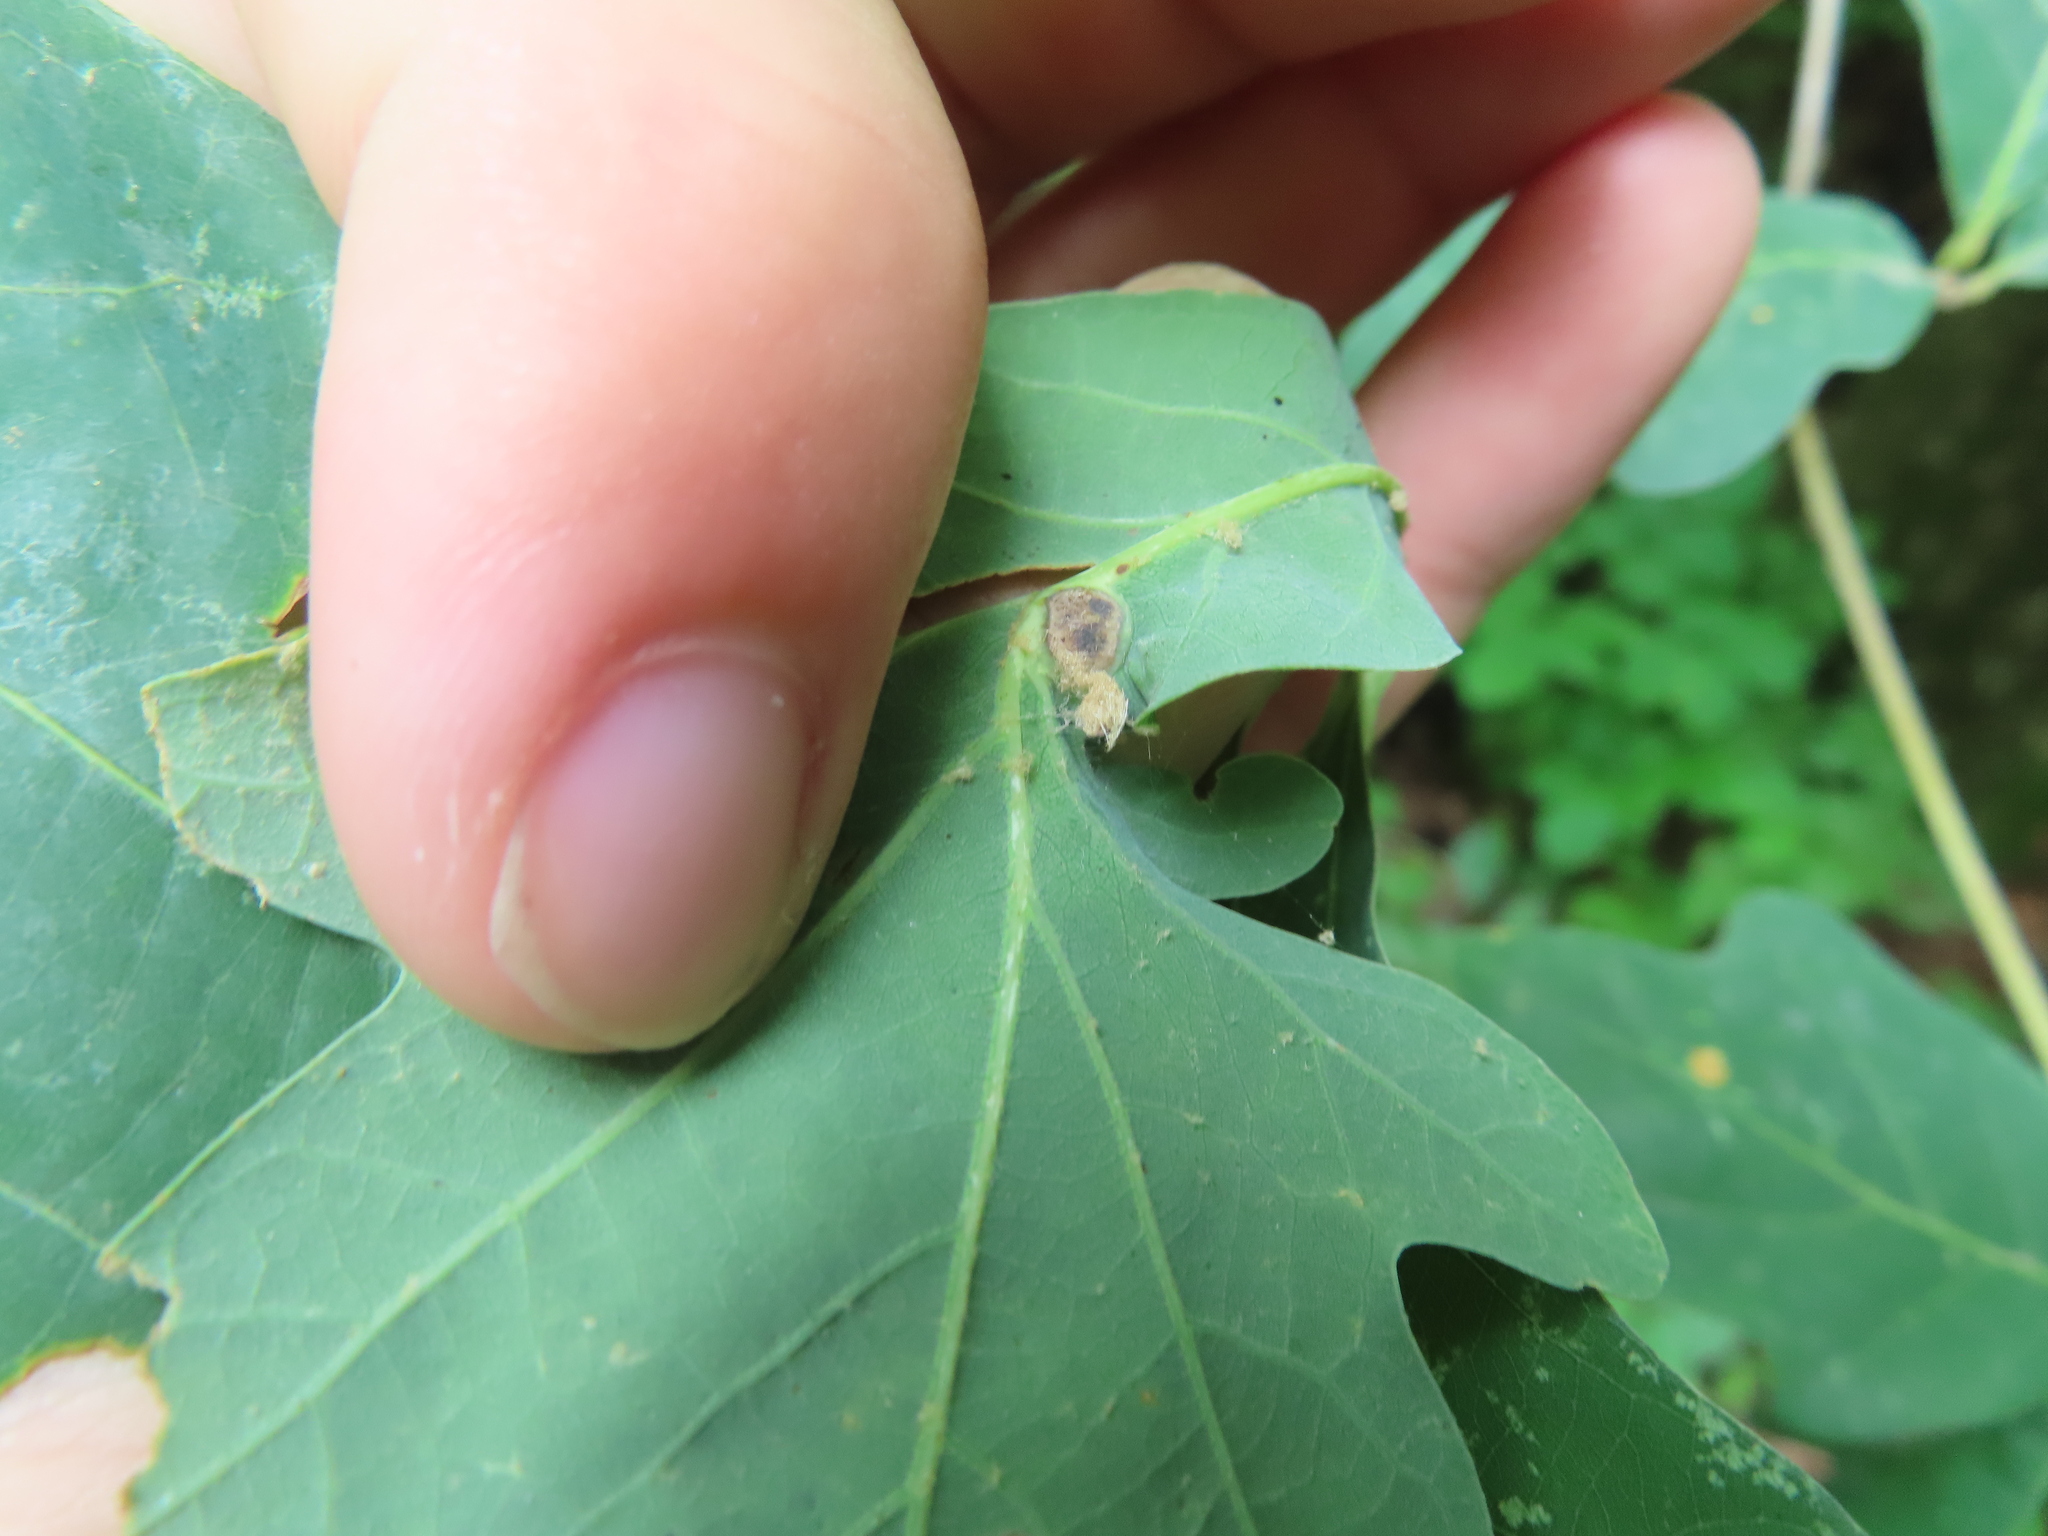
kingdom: Animalia
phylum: Arthropoda
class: Insecta
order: Hymenoptera
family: Cynipidae
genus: Andricus
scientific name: Andricus
